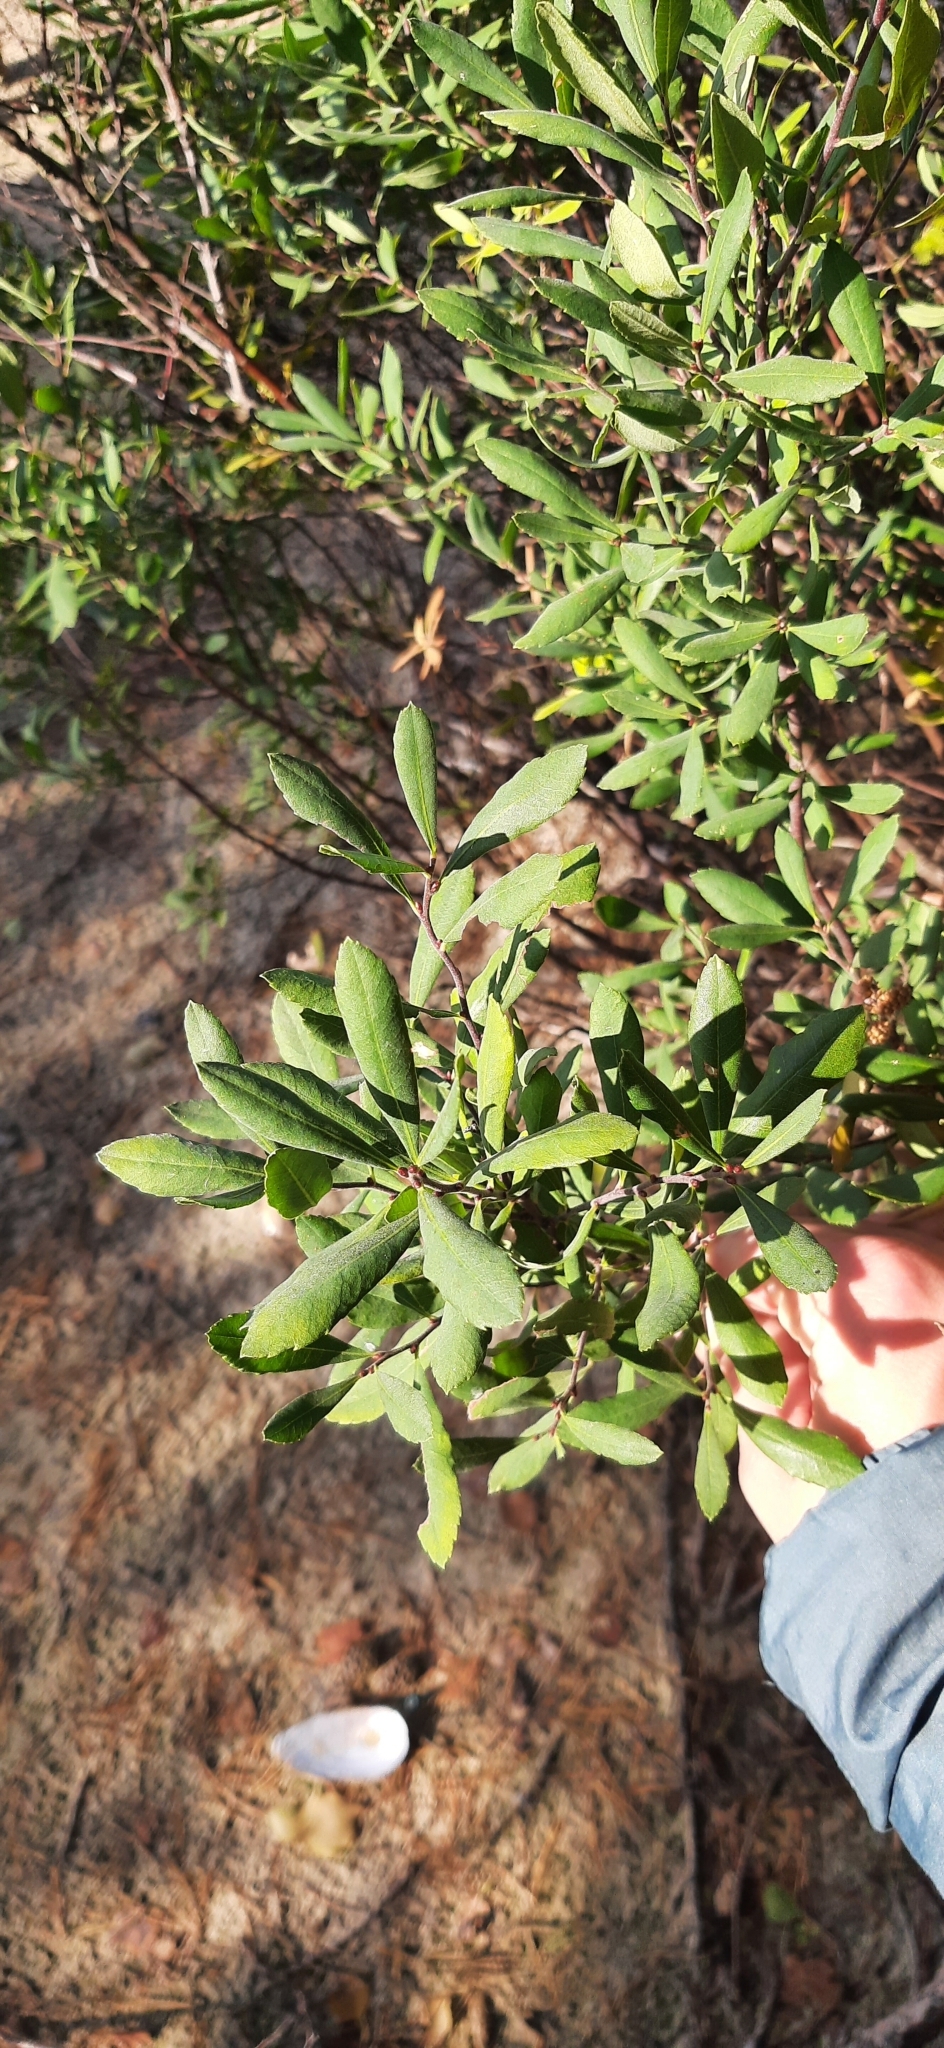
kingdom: Plantae
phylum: Tracheophyta
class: Magnoliopsida
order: Fagales
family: Myricaceae
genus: Myrica
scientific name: Myrica gale
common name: Sweet gale
